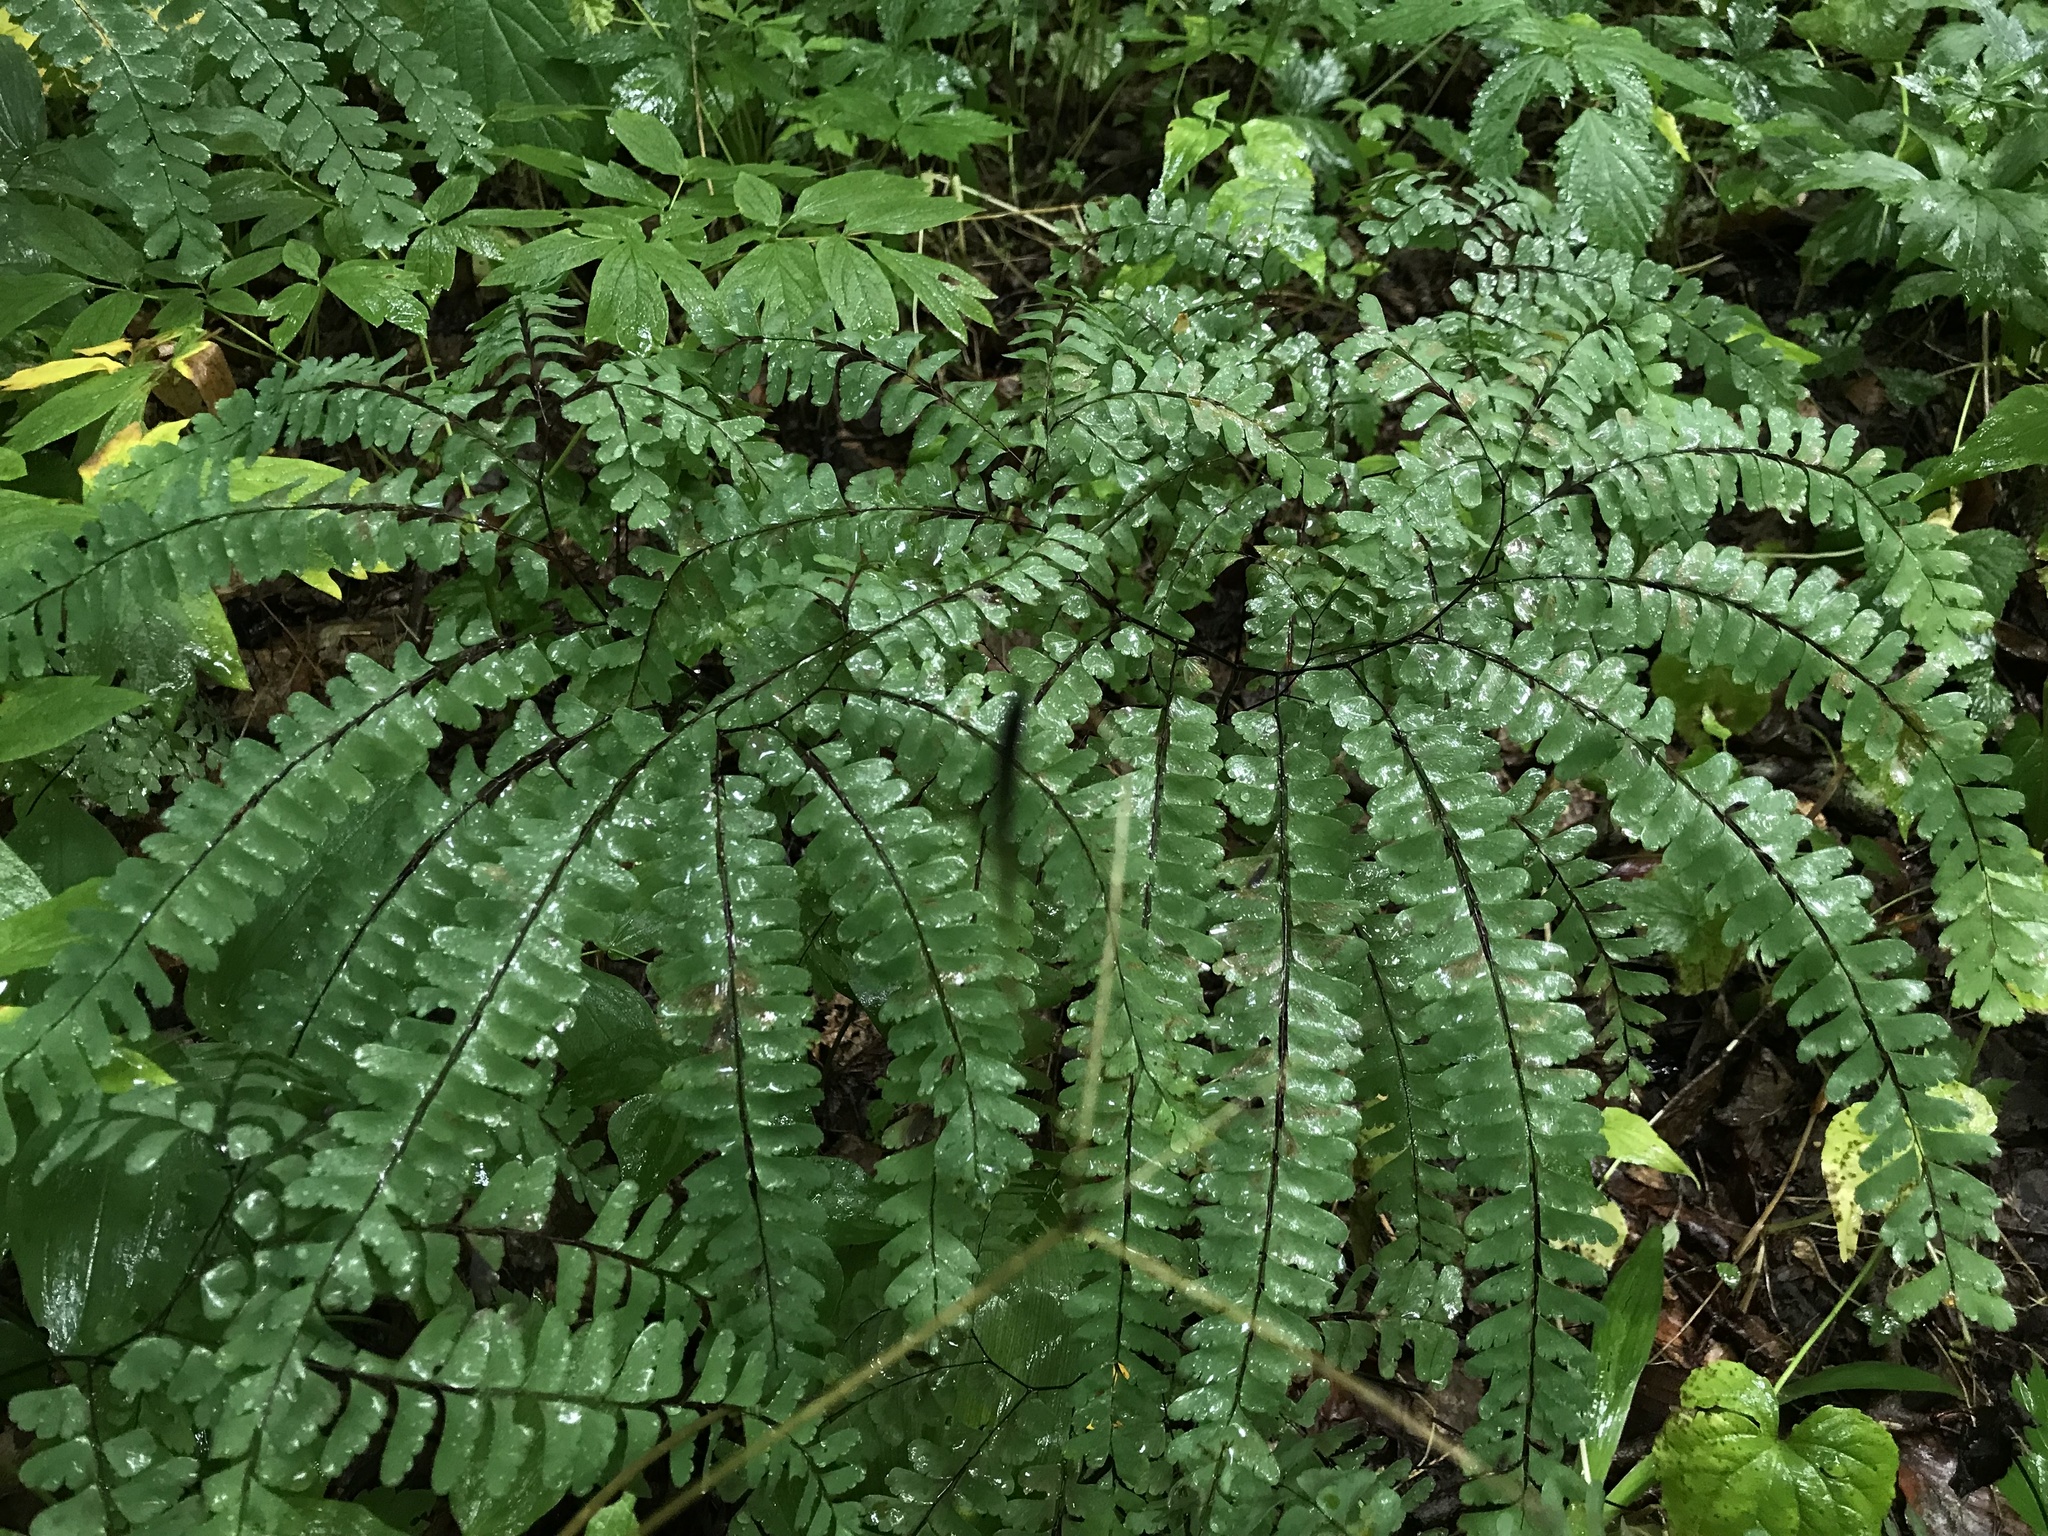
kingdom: Plantae
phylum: Tracheophyta
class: Polypodiopsida
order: Polypodiales
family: Pteridaceae
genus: Adiantum
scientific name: Adiantum pedatum
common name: Five-finger fern
